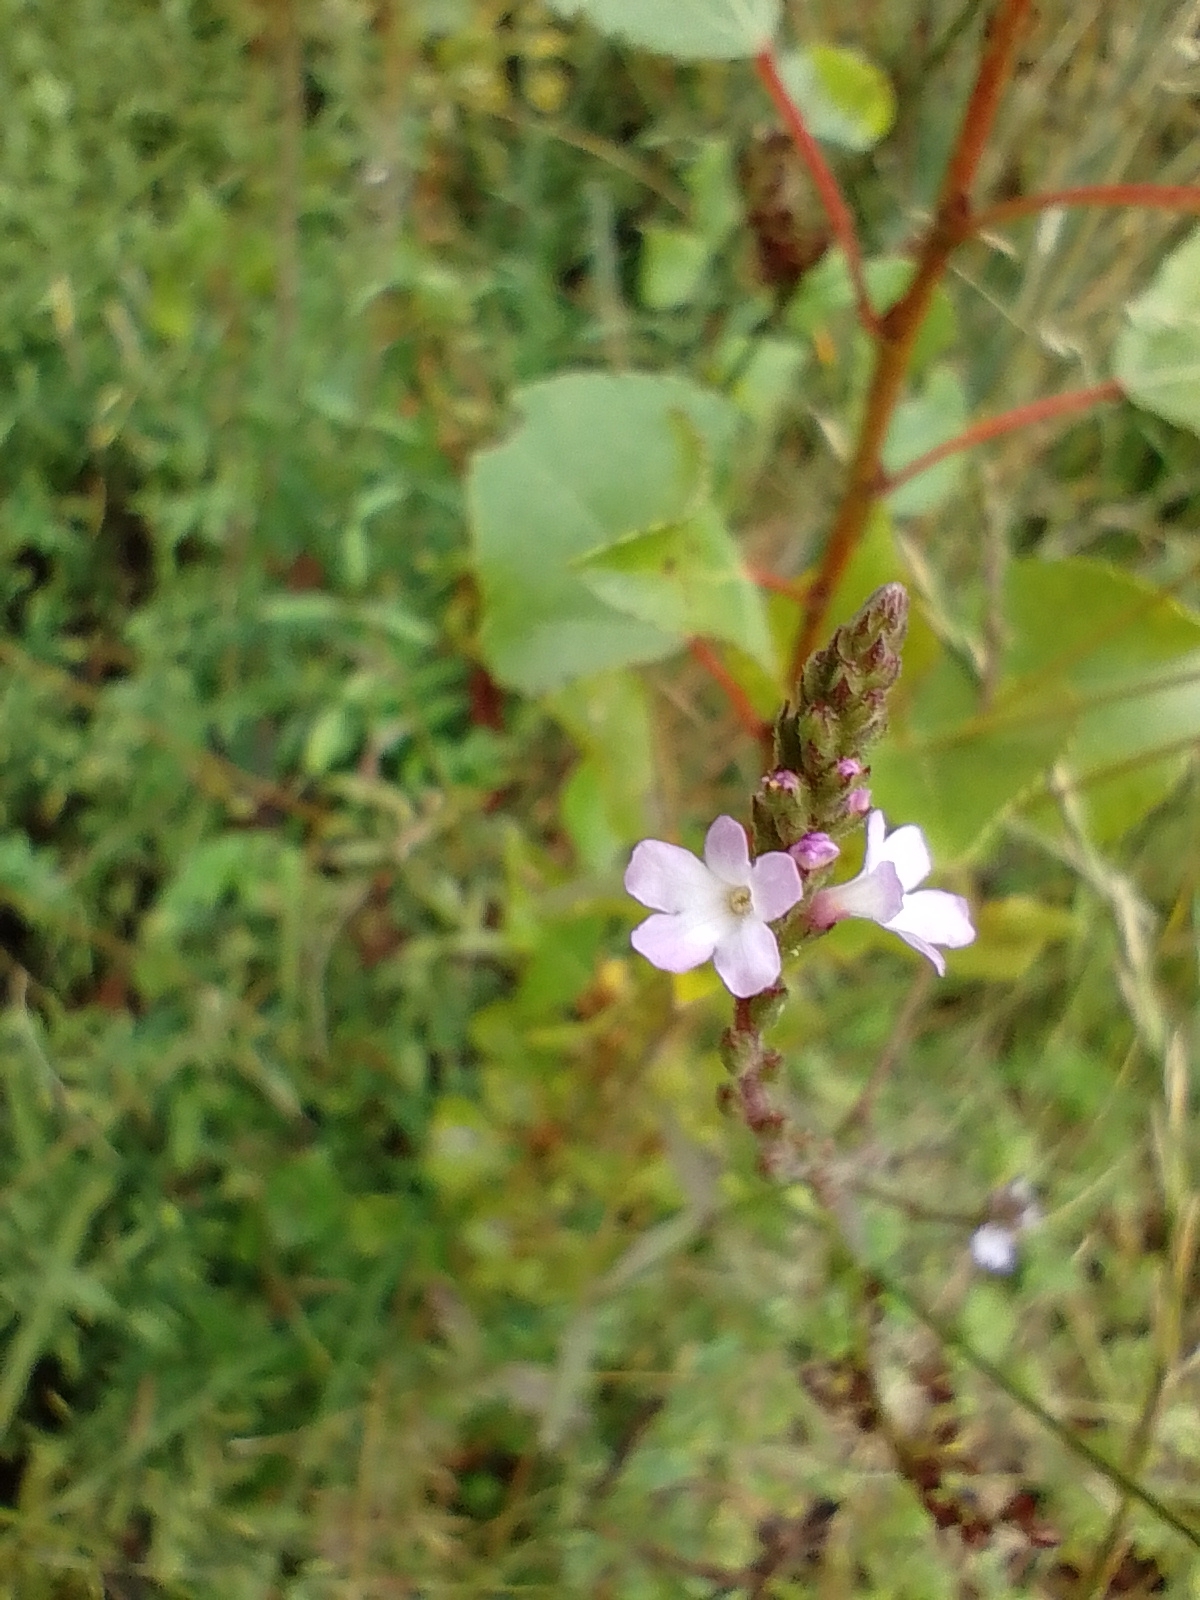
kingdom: Plantae
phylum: Tracheophyta
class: Magnoliopsida
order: Lamiales
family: Verbenaceae
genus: Verbena
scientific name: Verbena officinalis
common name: Vervain
